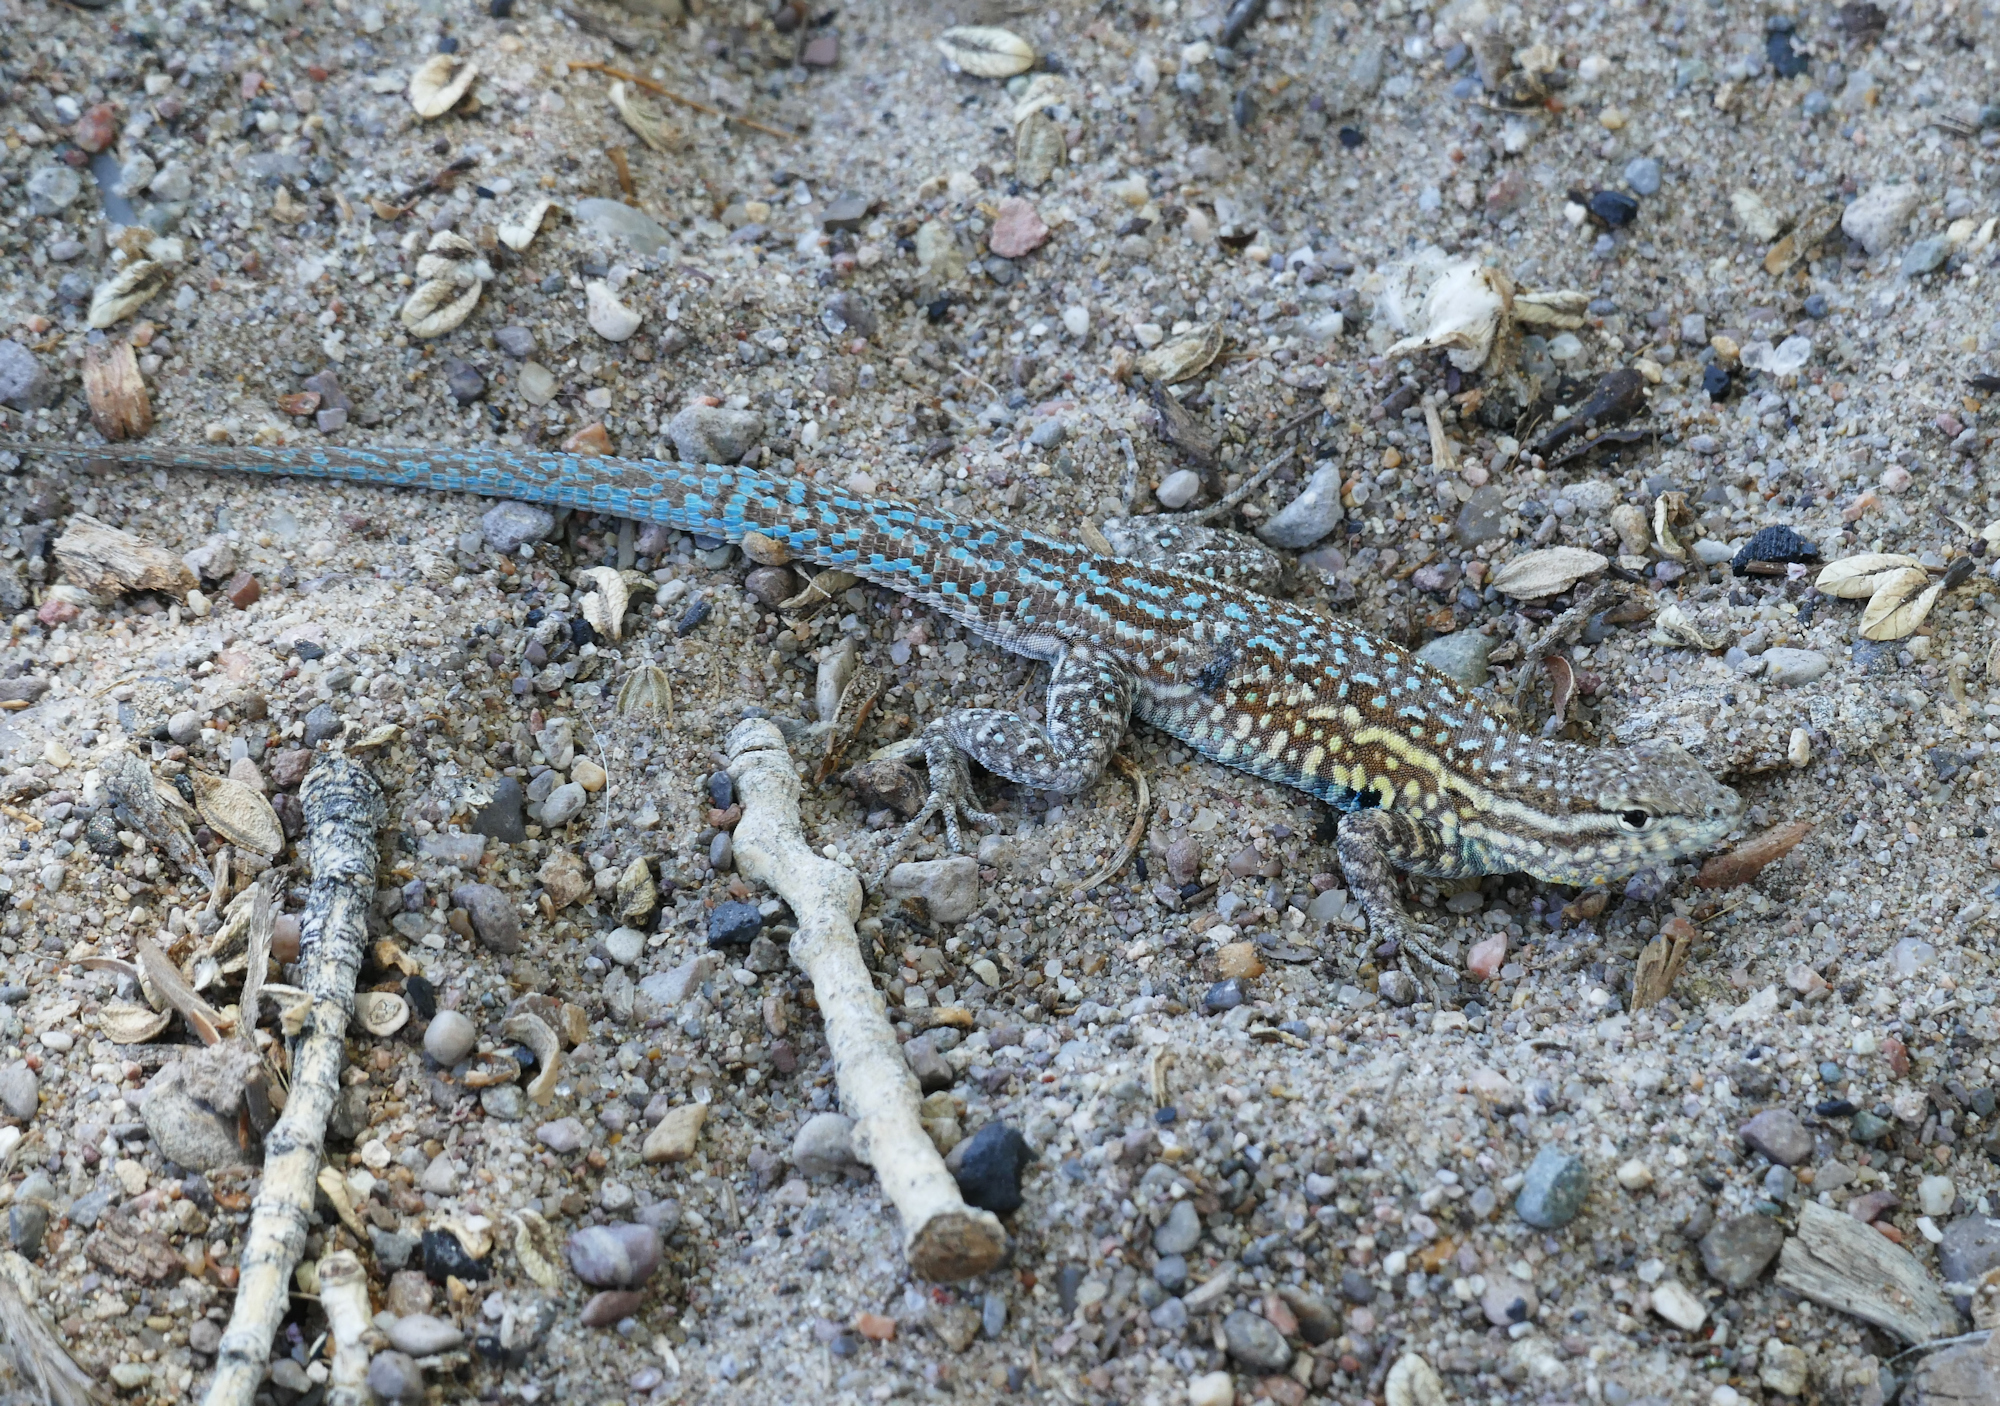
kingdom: Animalia
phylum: Chordata
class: Squamata
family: Phrynosomatidae
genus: Uta
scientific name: Uta stansburiana
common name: Side-blotched lizard
